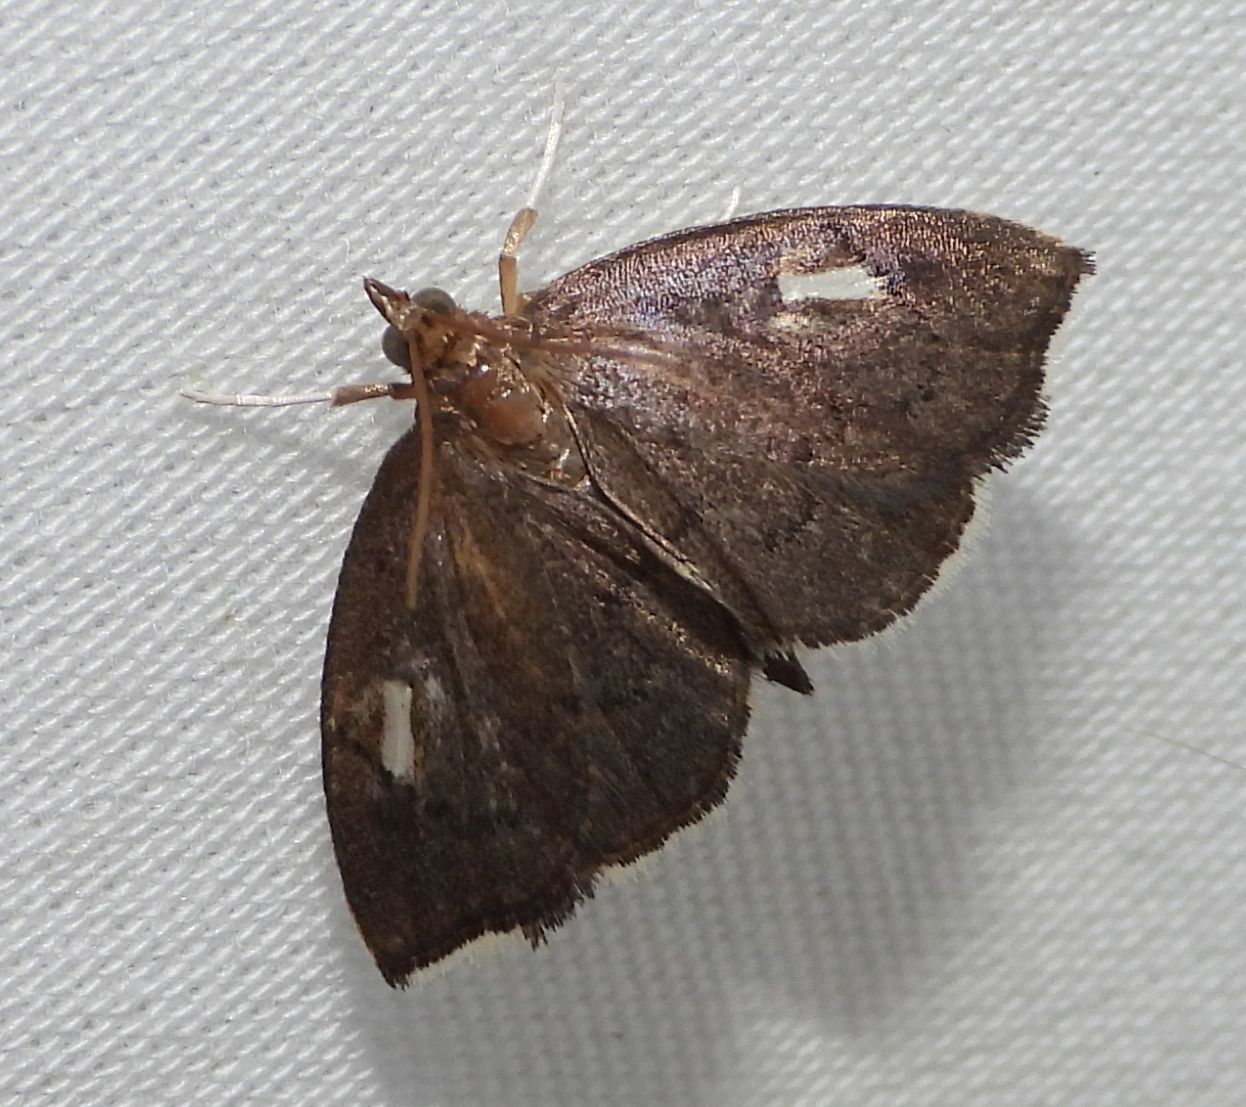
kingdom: Animalia
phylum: Arthropoda
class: Insecta
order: Lepidoptera
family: Crambidae
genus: Perispasta
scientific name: Perispasta caeculalis
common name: Titian peale's moth
